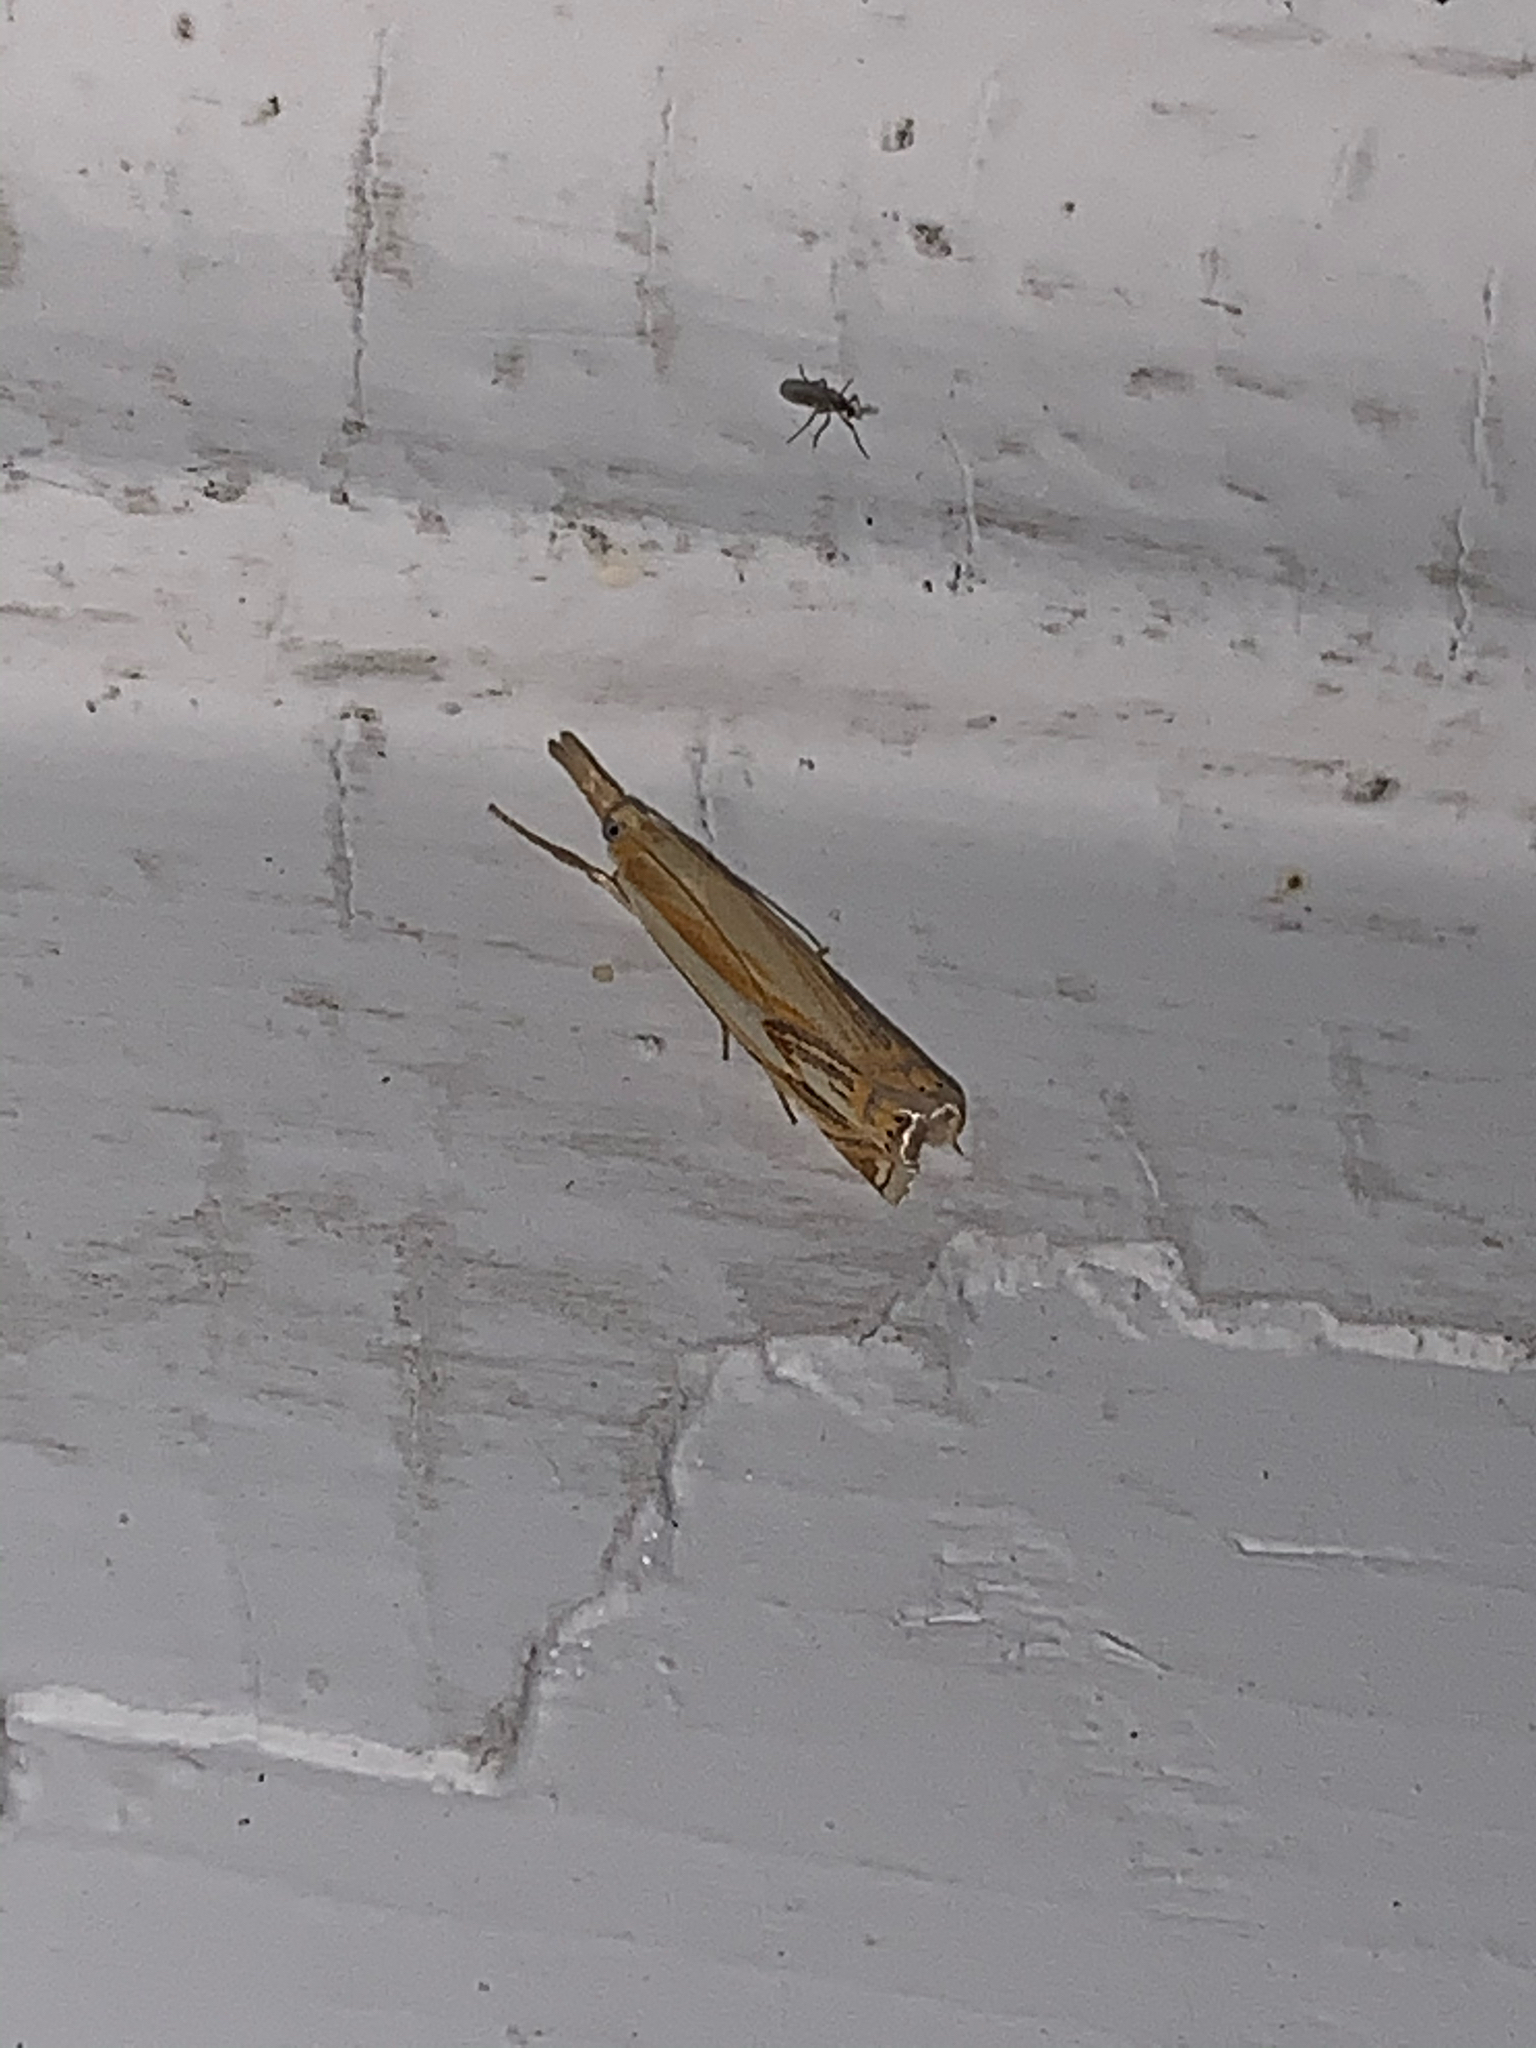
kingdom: Animalia
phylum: Arthropoda
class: Insecta
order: Lepidoptera
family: Crambidae
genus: Crambus
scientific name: Crambus agitatellus
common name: Double-banded grass-veneer
